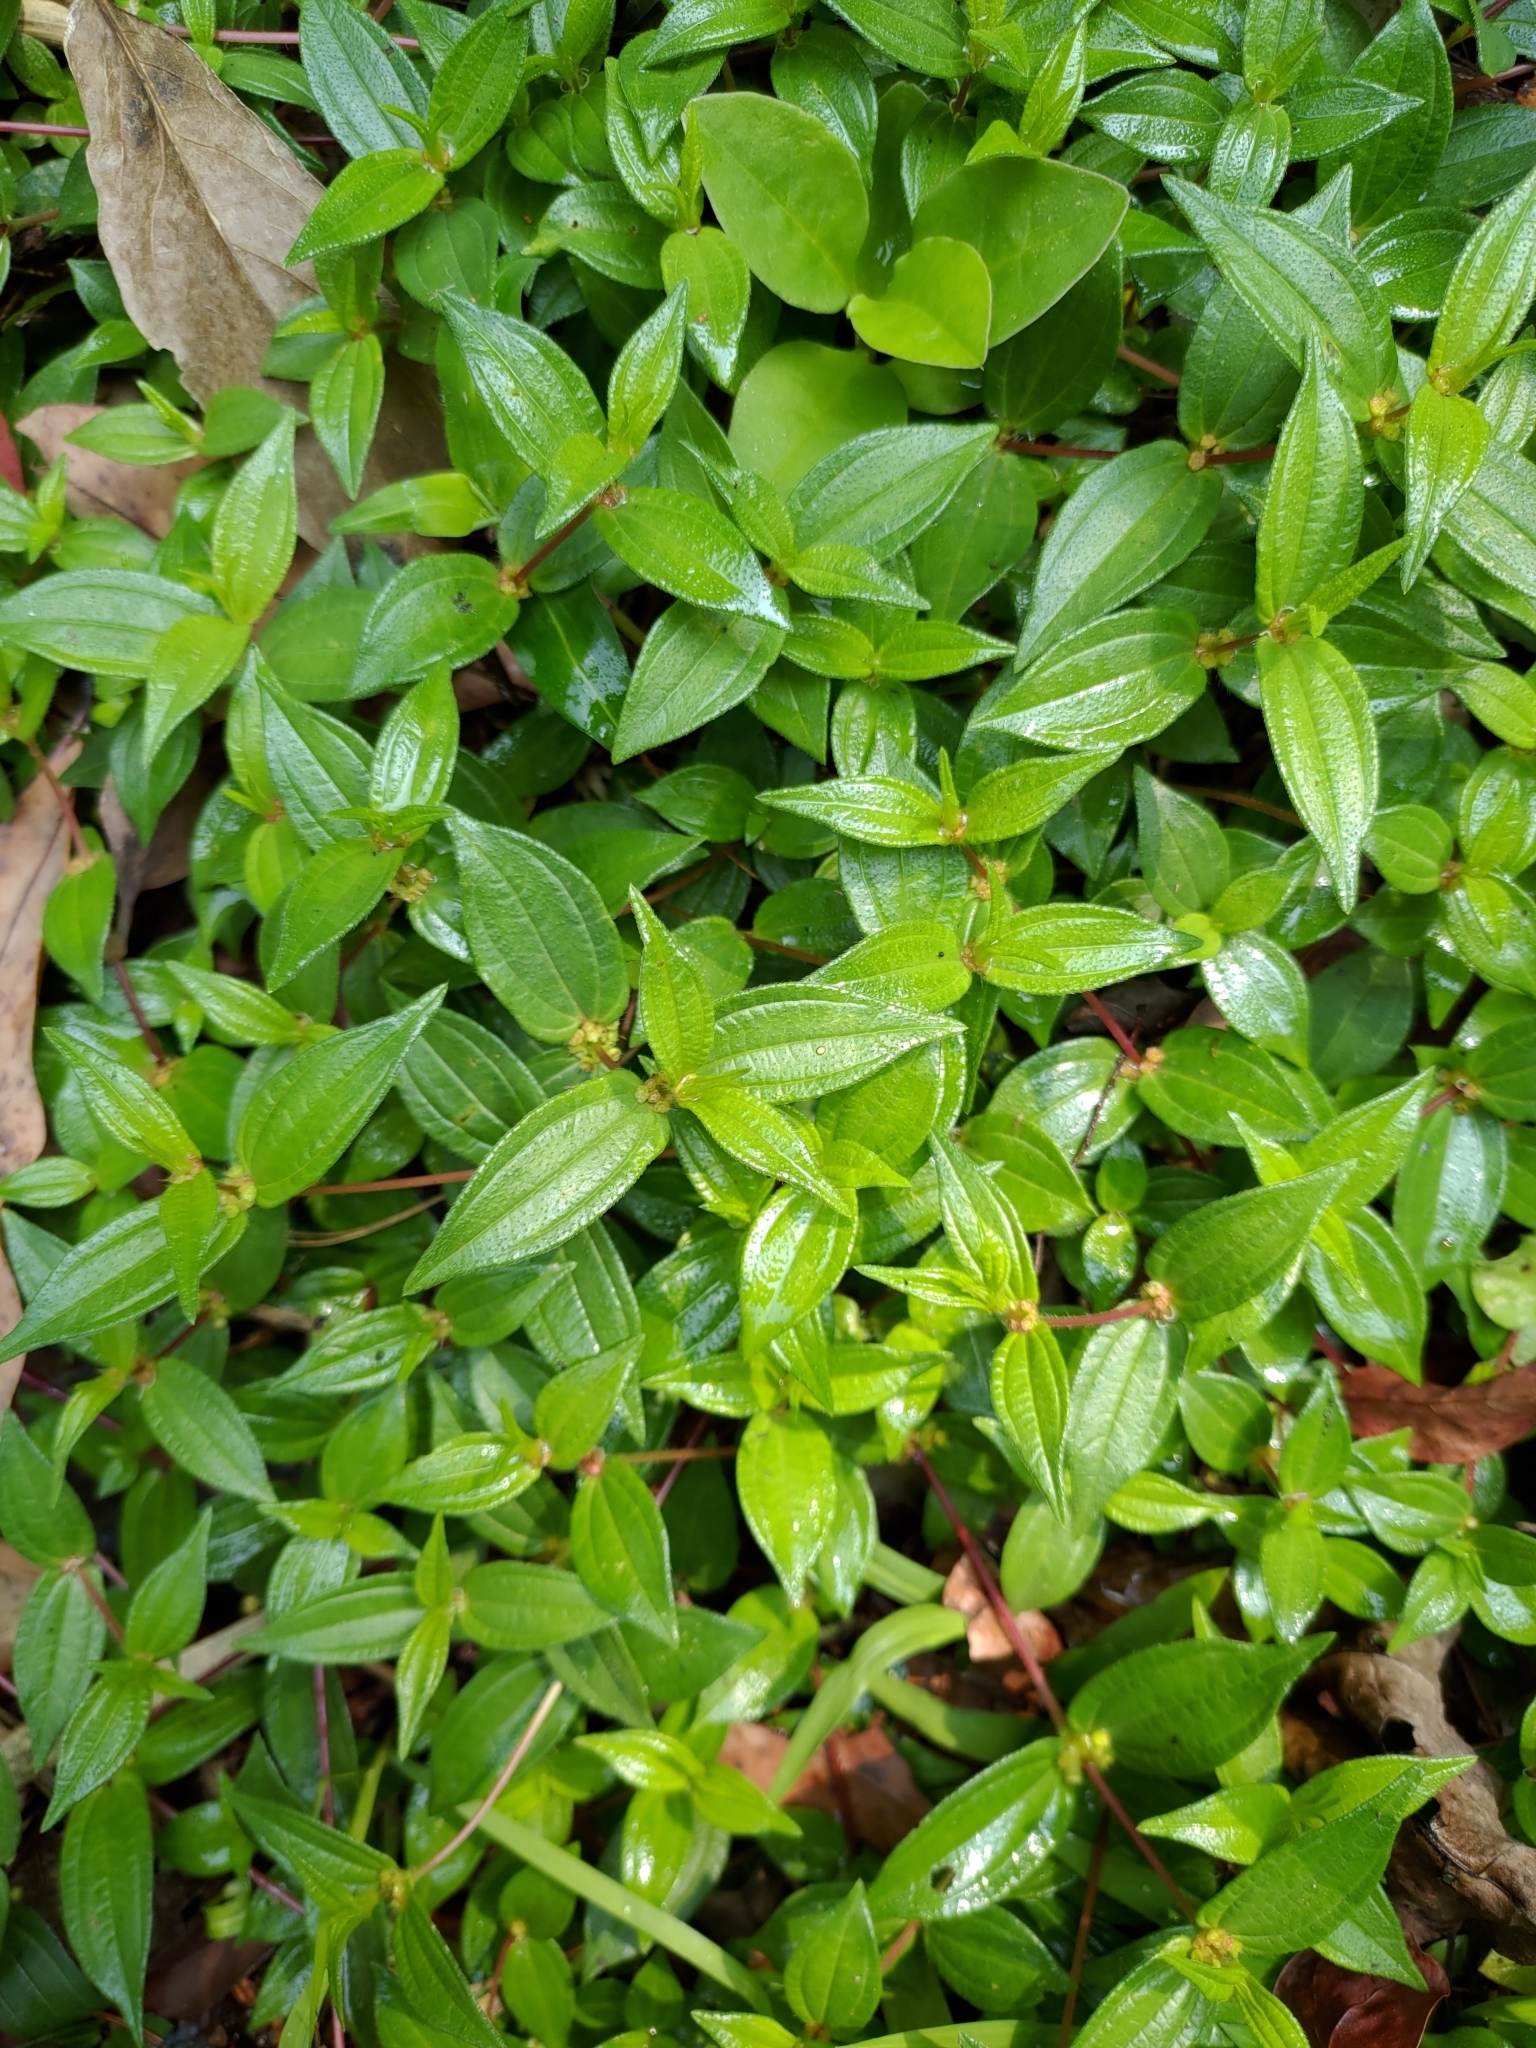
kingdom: Plantae
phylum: Tracheophyta
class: Magnoliopsida
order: Rosales
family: Urticaceae
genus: Gonostegia
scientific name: Gonostegia triandra
